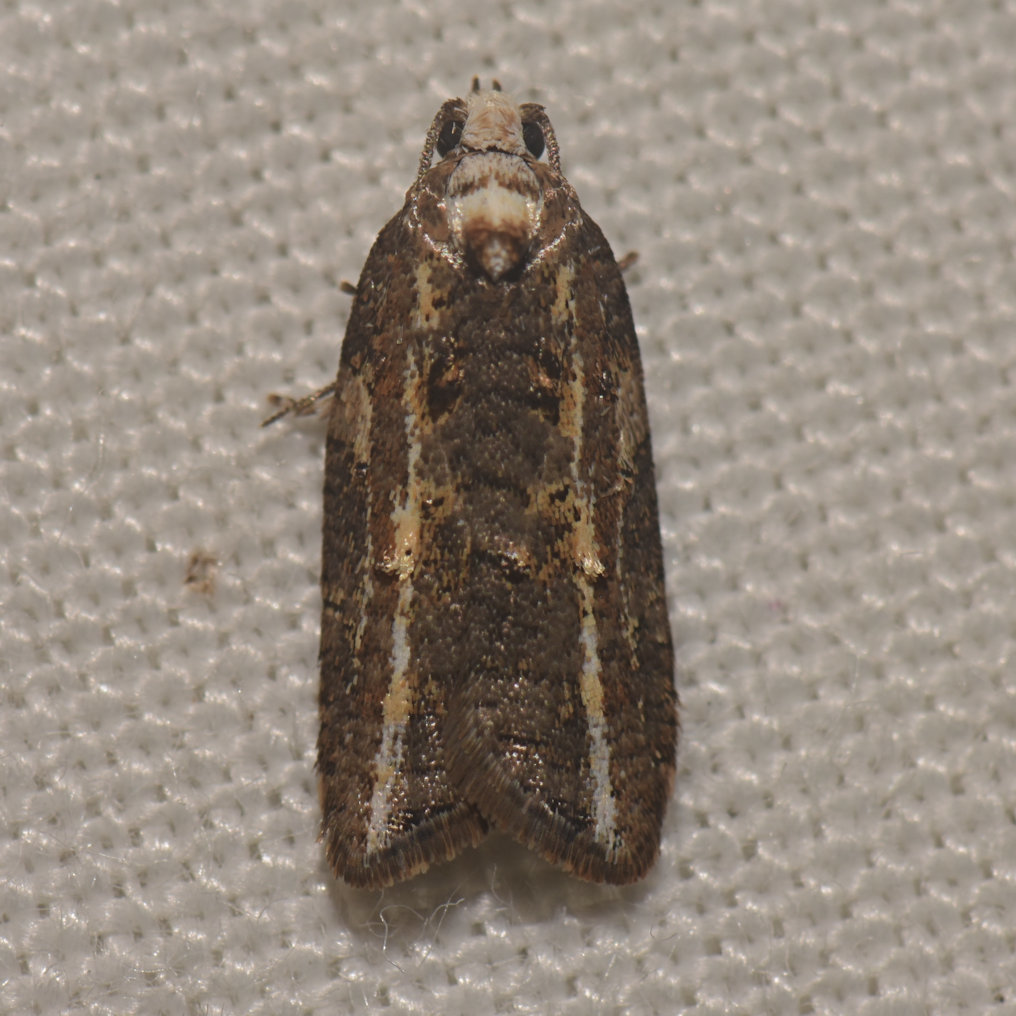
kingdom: Animalia
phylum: Arthropoda
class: Insecta
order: Lepidoptera
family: Tortricidae
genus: Acleris
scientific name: Acleris variana
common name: Eastern black-headed budworm moth
